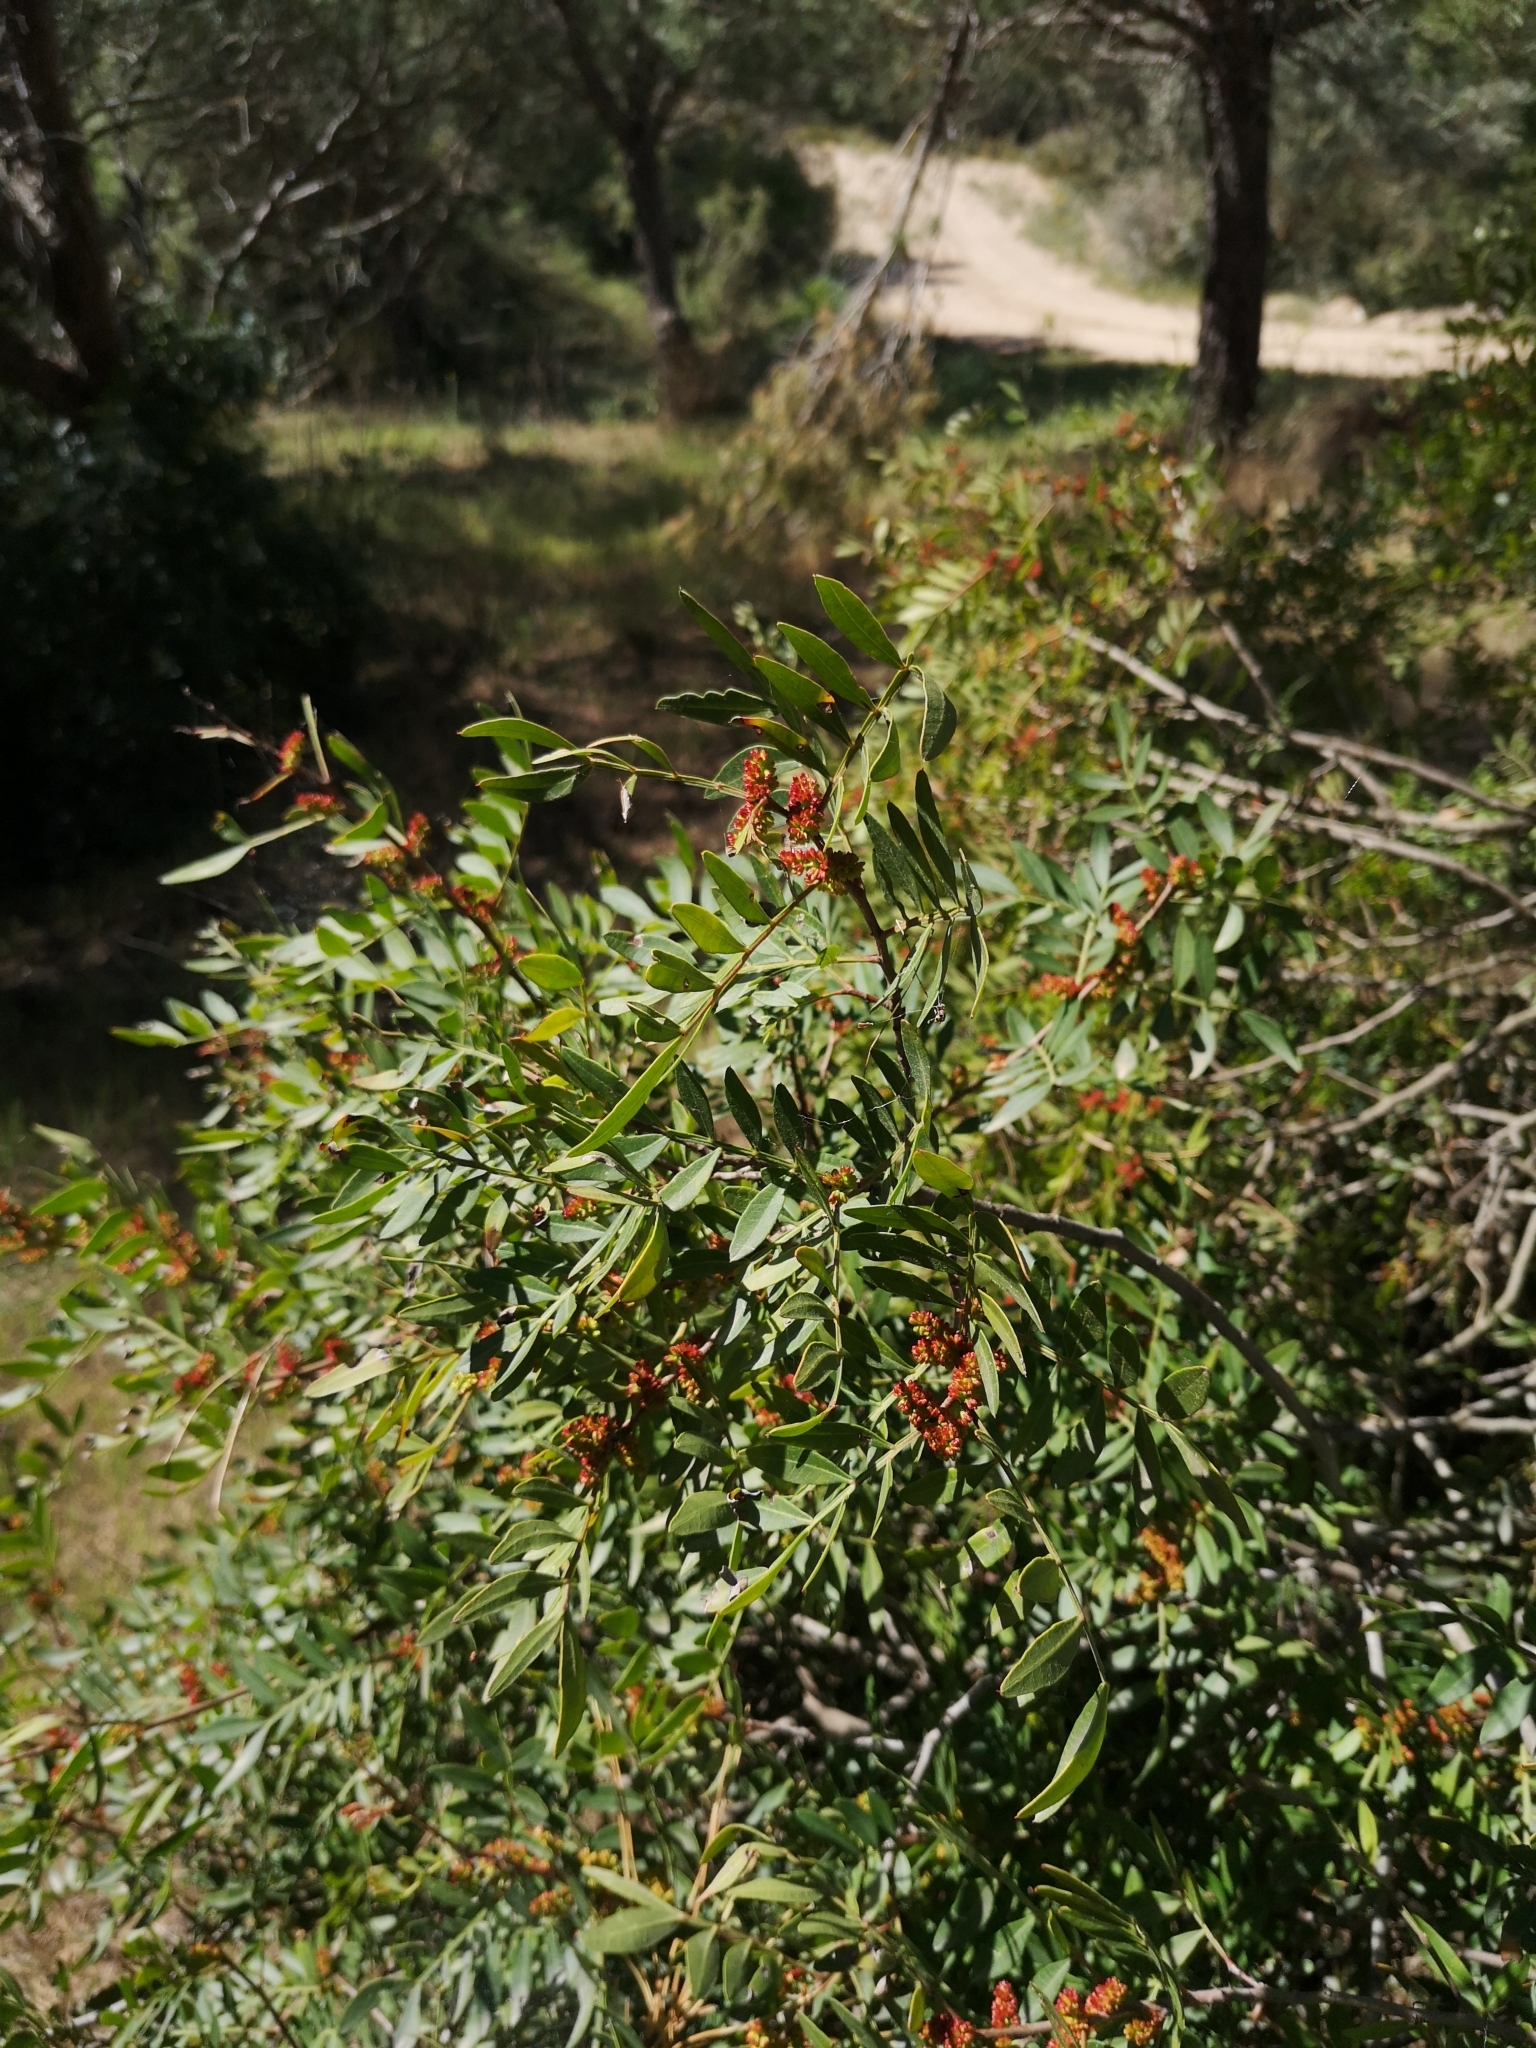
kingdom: Plantae
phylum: Tracheophyta
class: Magnoliopsida
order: Sapindales
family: Anacardiaceae
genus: Pistacia
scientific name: Pistacia lentiscus
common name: Lentisk
